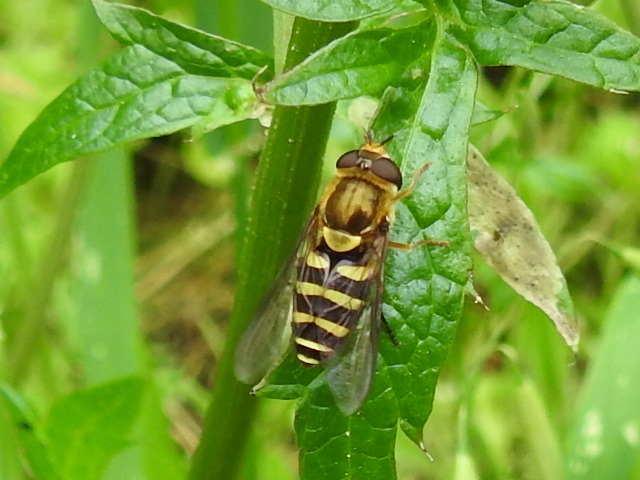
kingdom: Animalia
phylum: Arthropoda
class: Insecta
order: Diptera
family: Syrphidae
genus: Syrphus
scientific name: Syrphus opinator
